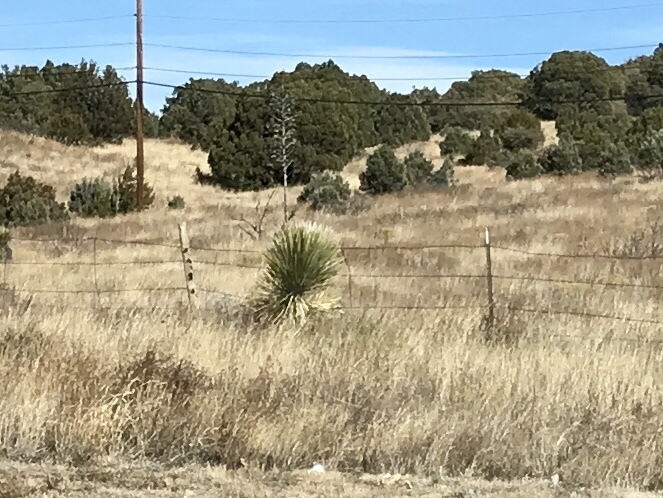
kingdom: Plantae
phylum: Tracheophyta
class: Liliopsida
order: Asparagales
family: Asparagaceae
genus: Yucca
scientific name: Yucca elata
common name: Palmella
